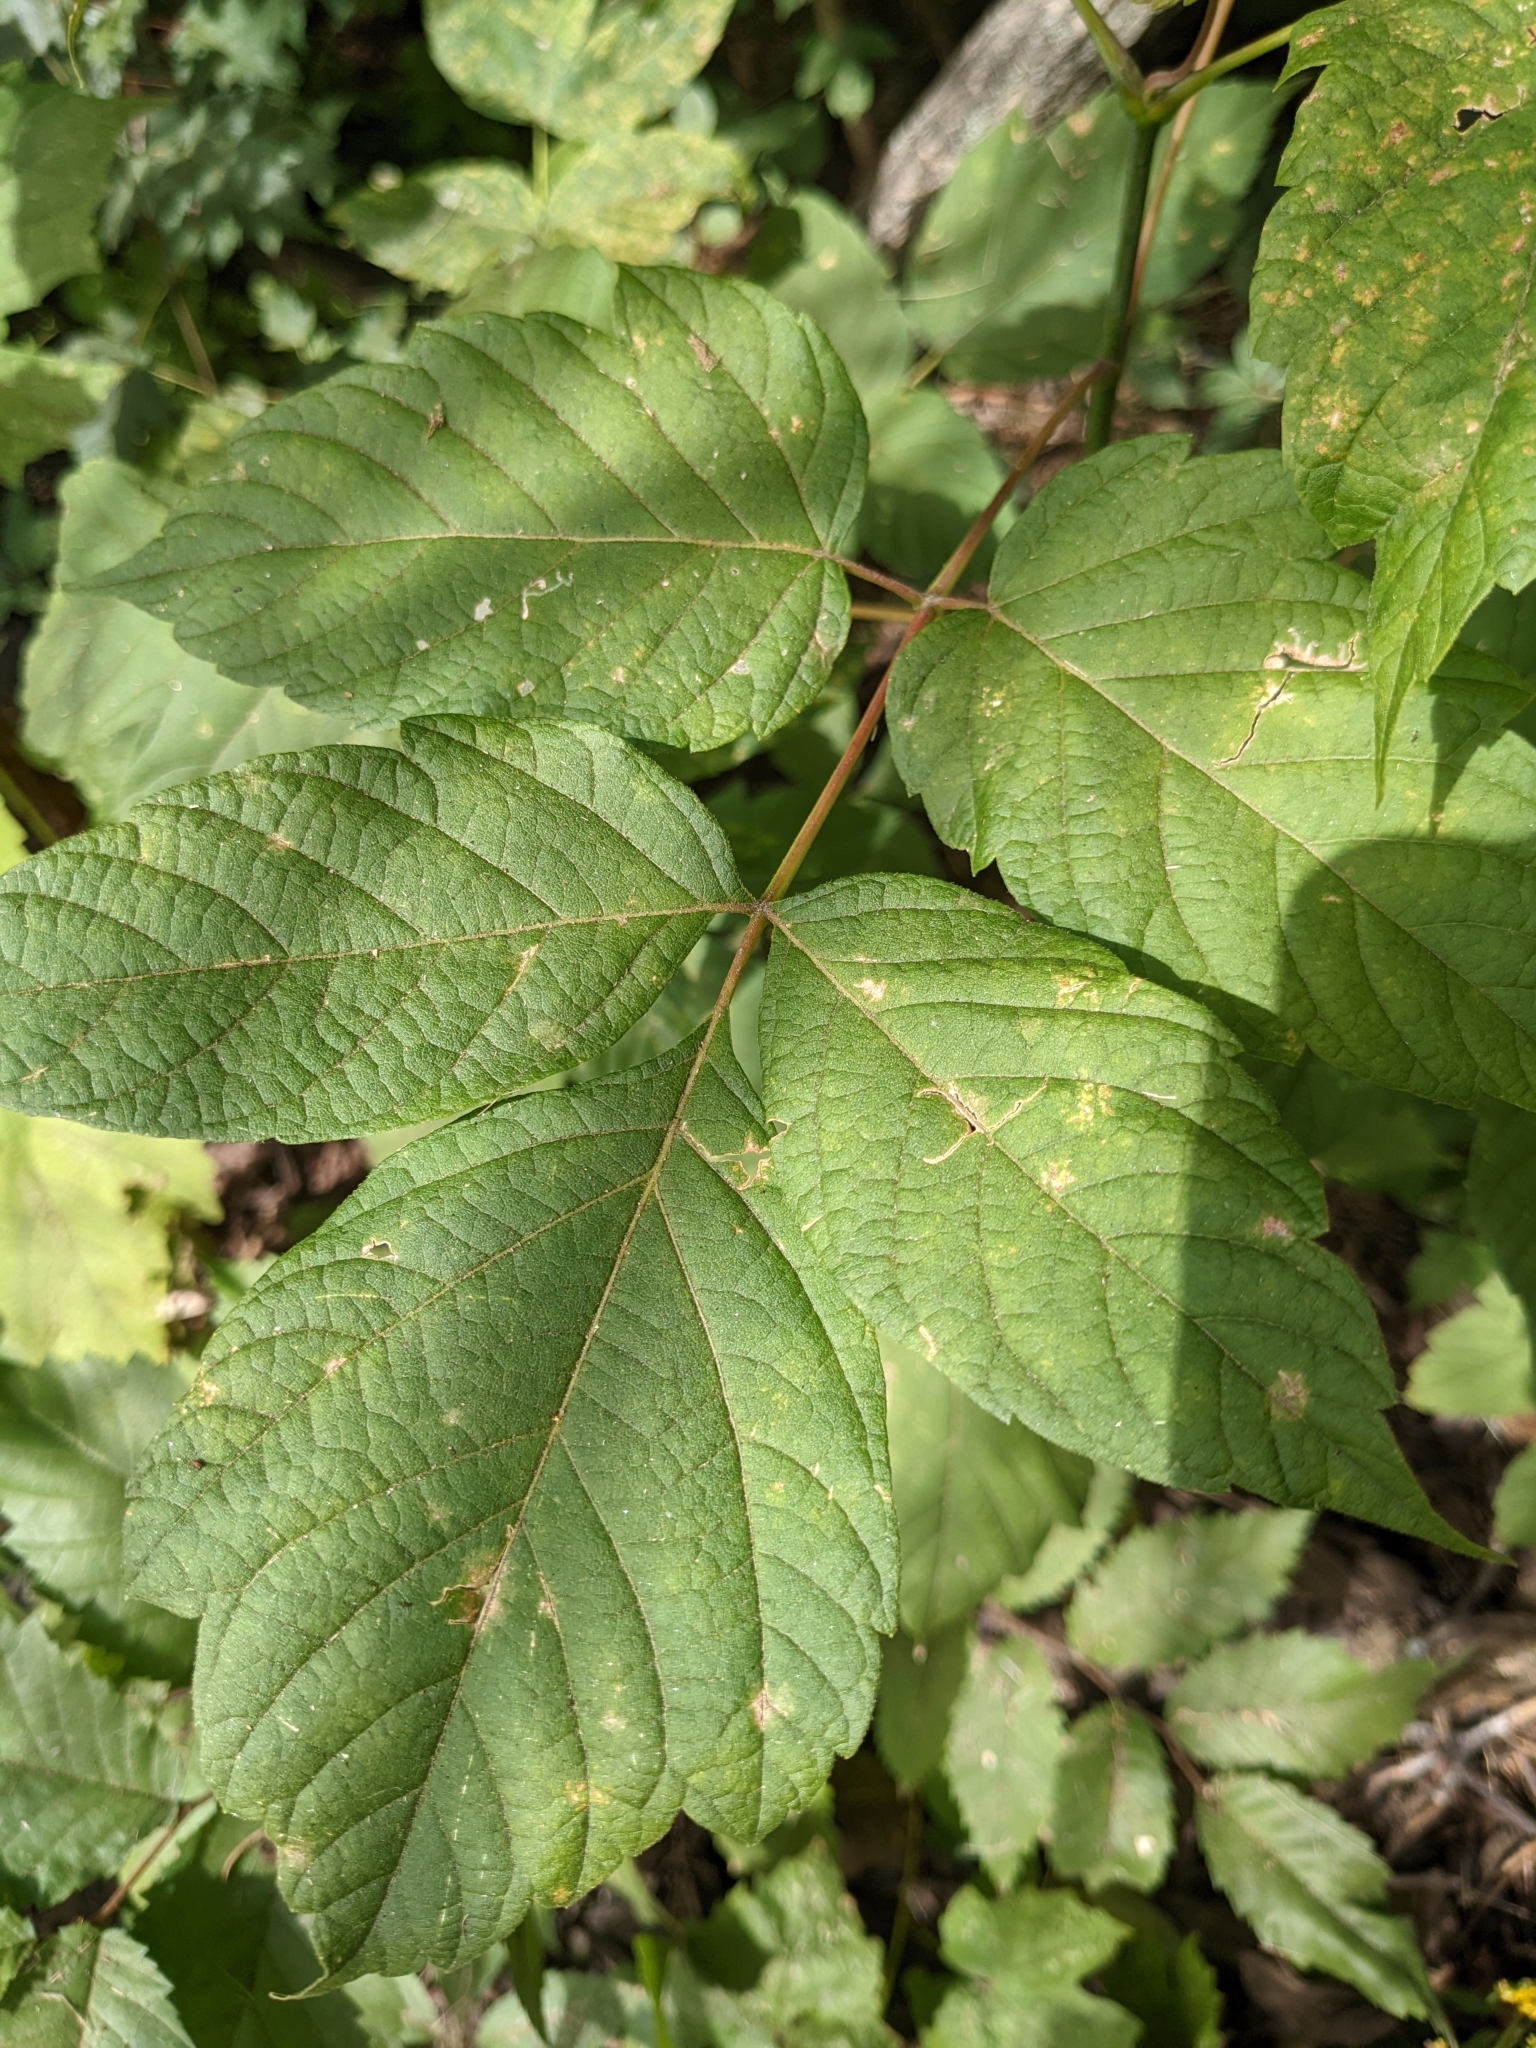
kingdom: Plantae
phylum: Tracheophyta
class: Magnoliopsida
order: Sapindales
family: Sapindaceae
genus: Acer
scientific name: Acer negundo
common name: Ashleaf maple
